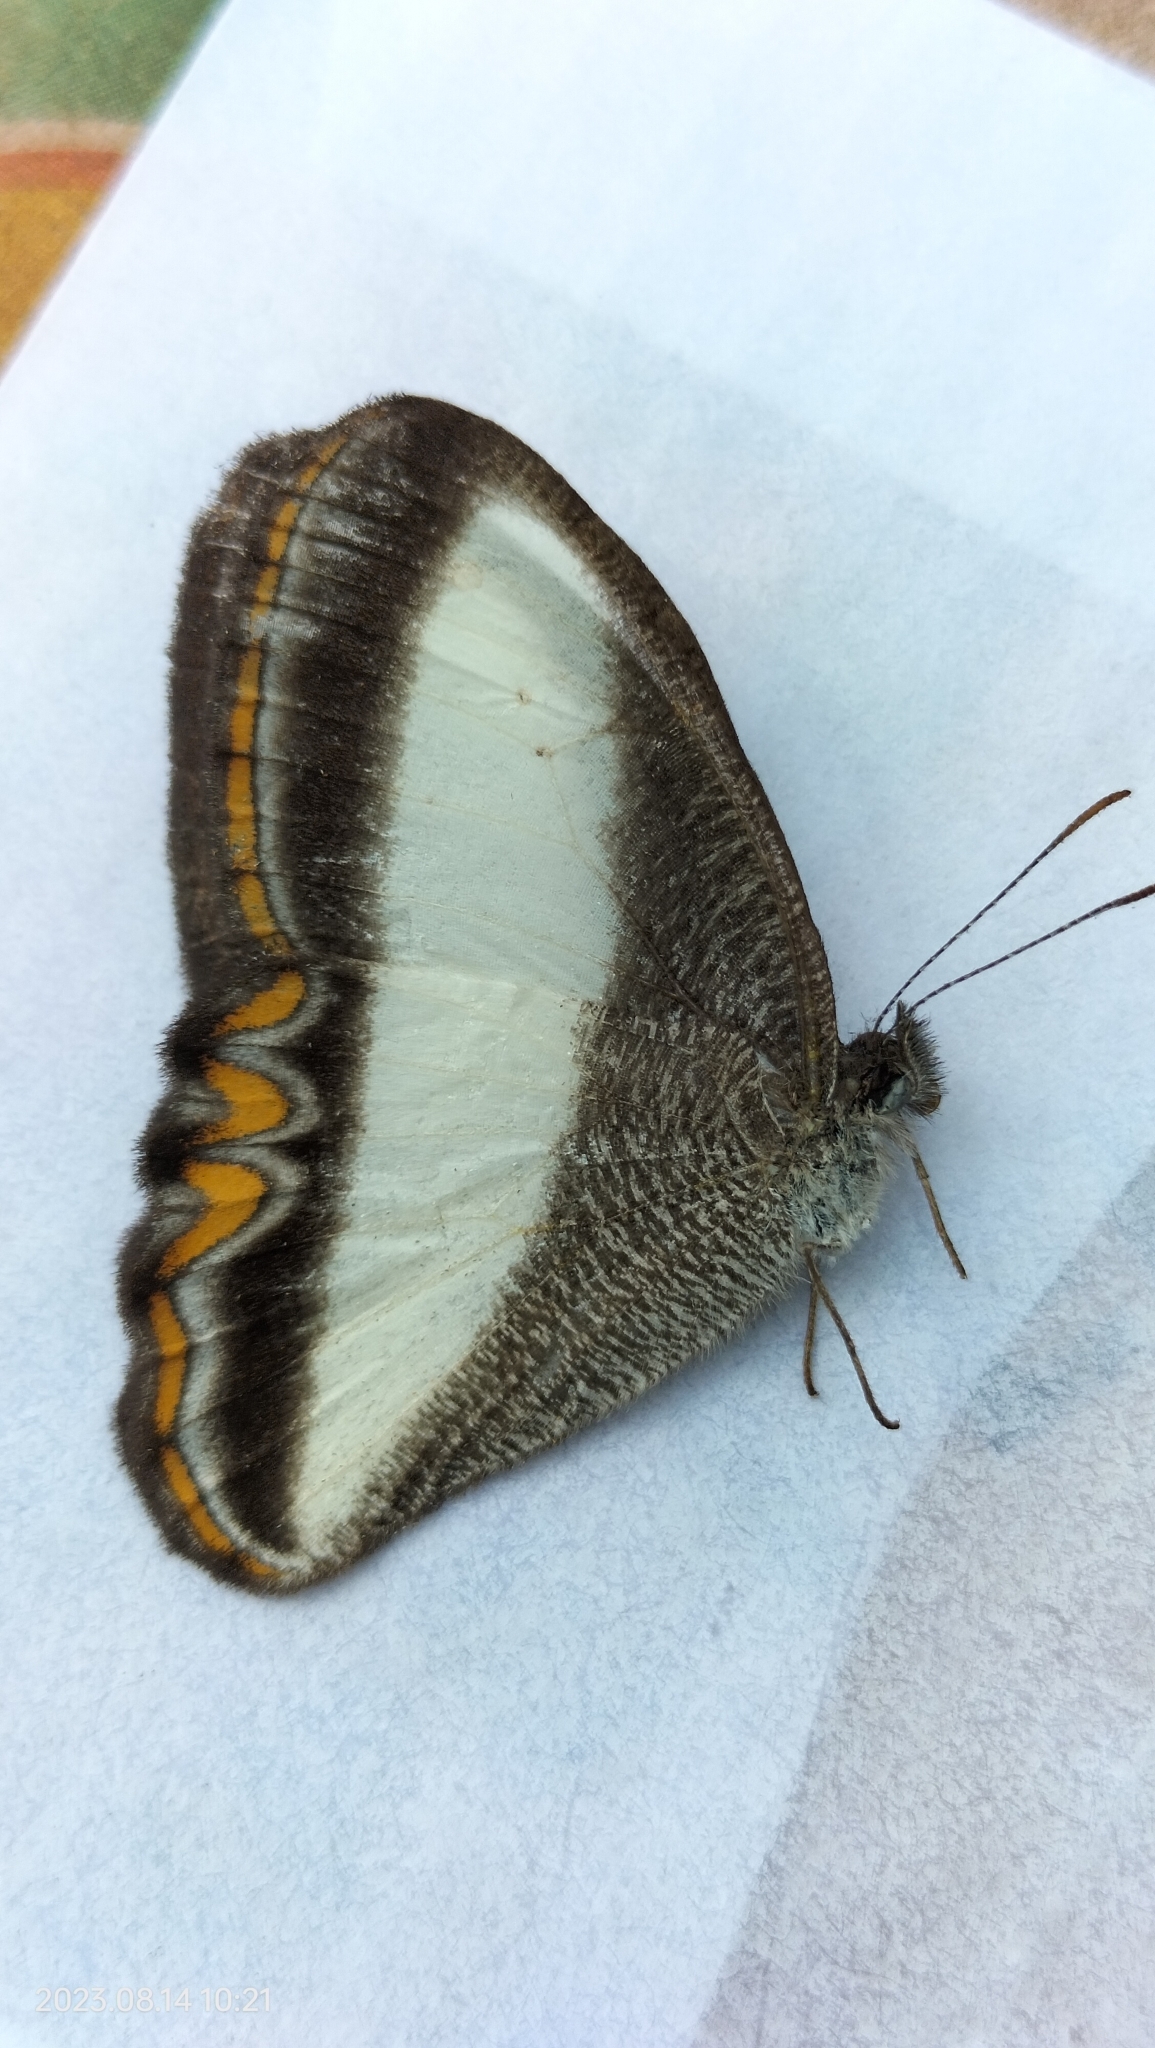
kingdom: Animalia
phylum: Arthropoda
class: Insecta
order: Lepidoptera
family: Nymphalidae
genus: Oressinoma
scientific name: Oressinoma typhla
